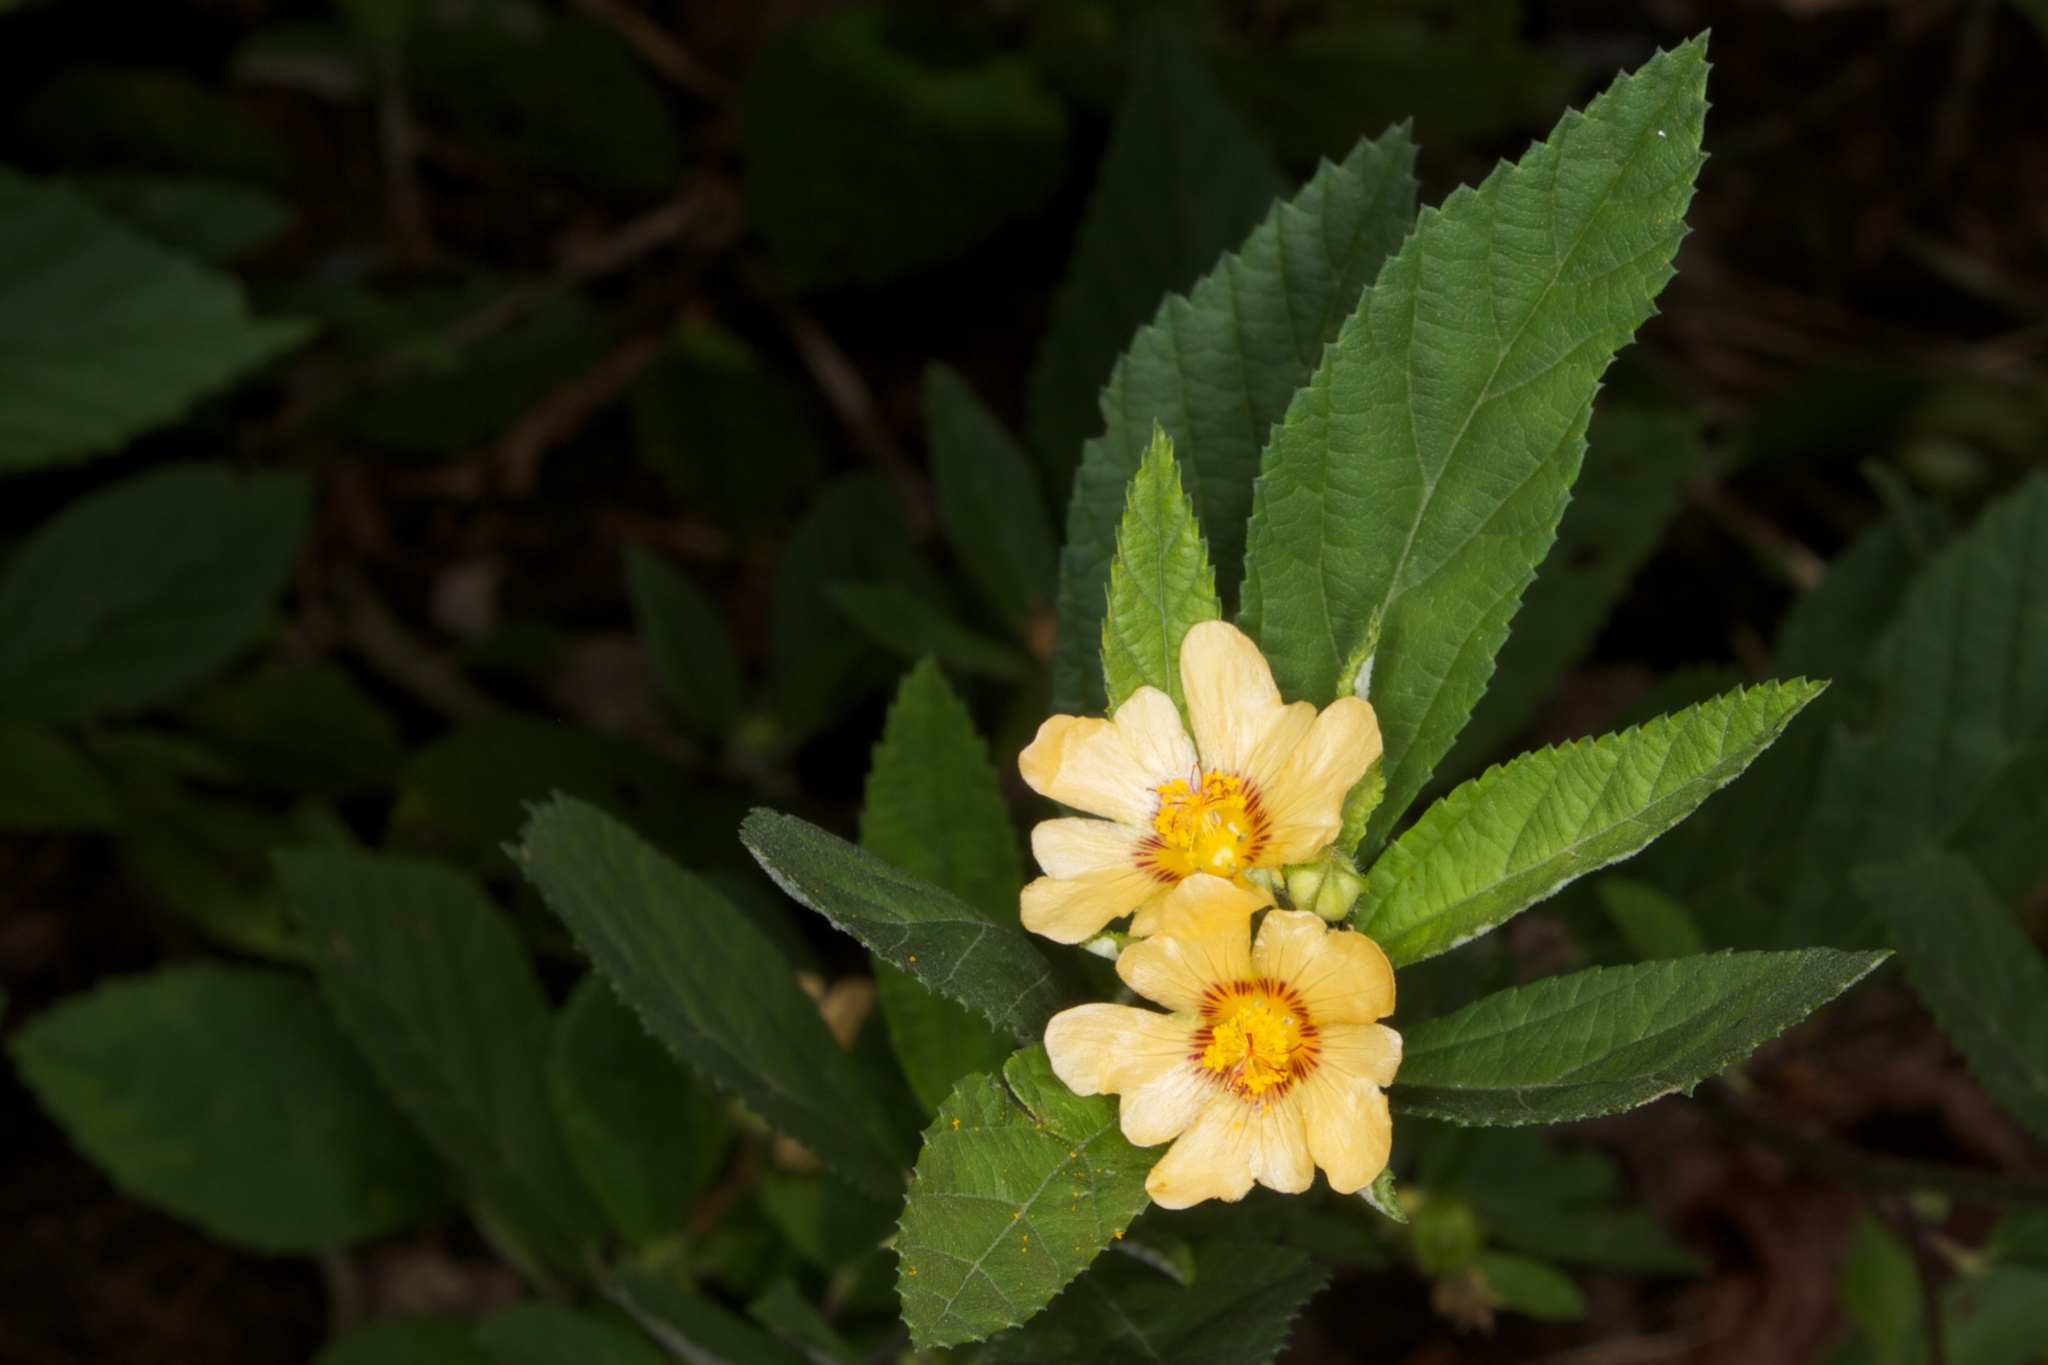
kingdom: Plantae
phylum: Tracheophyta
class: Magnoliopsida
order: Malvales
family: Malvaceae
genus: Sida
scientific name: Sida rhombifolia
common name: Queensland-hemp
